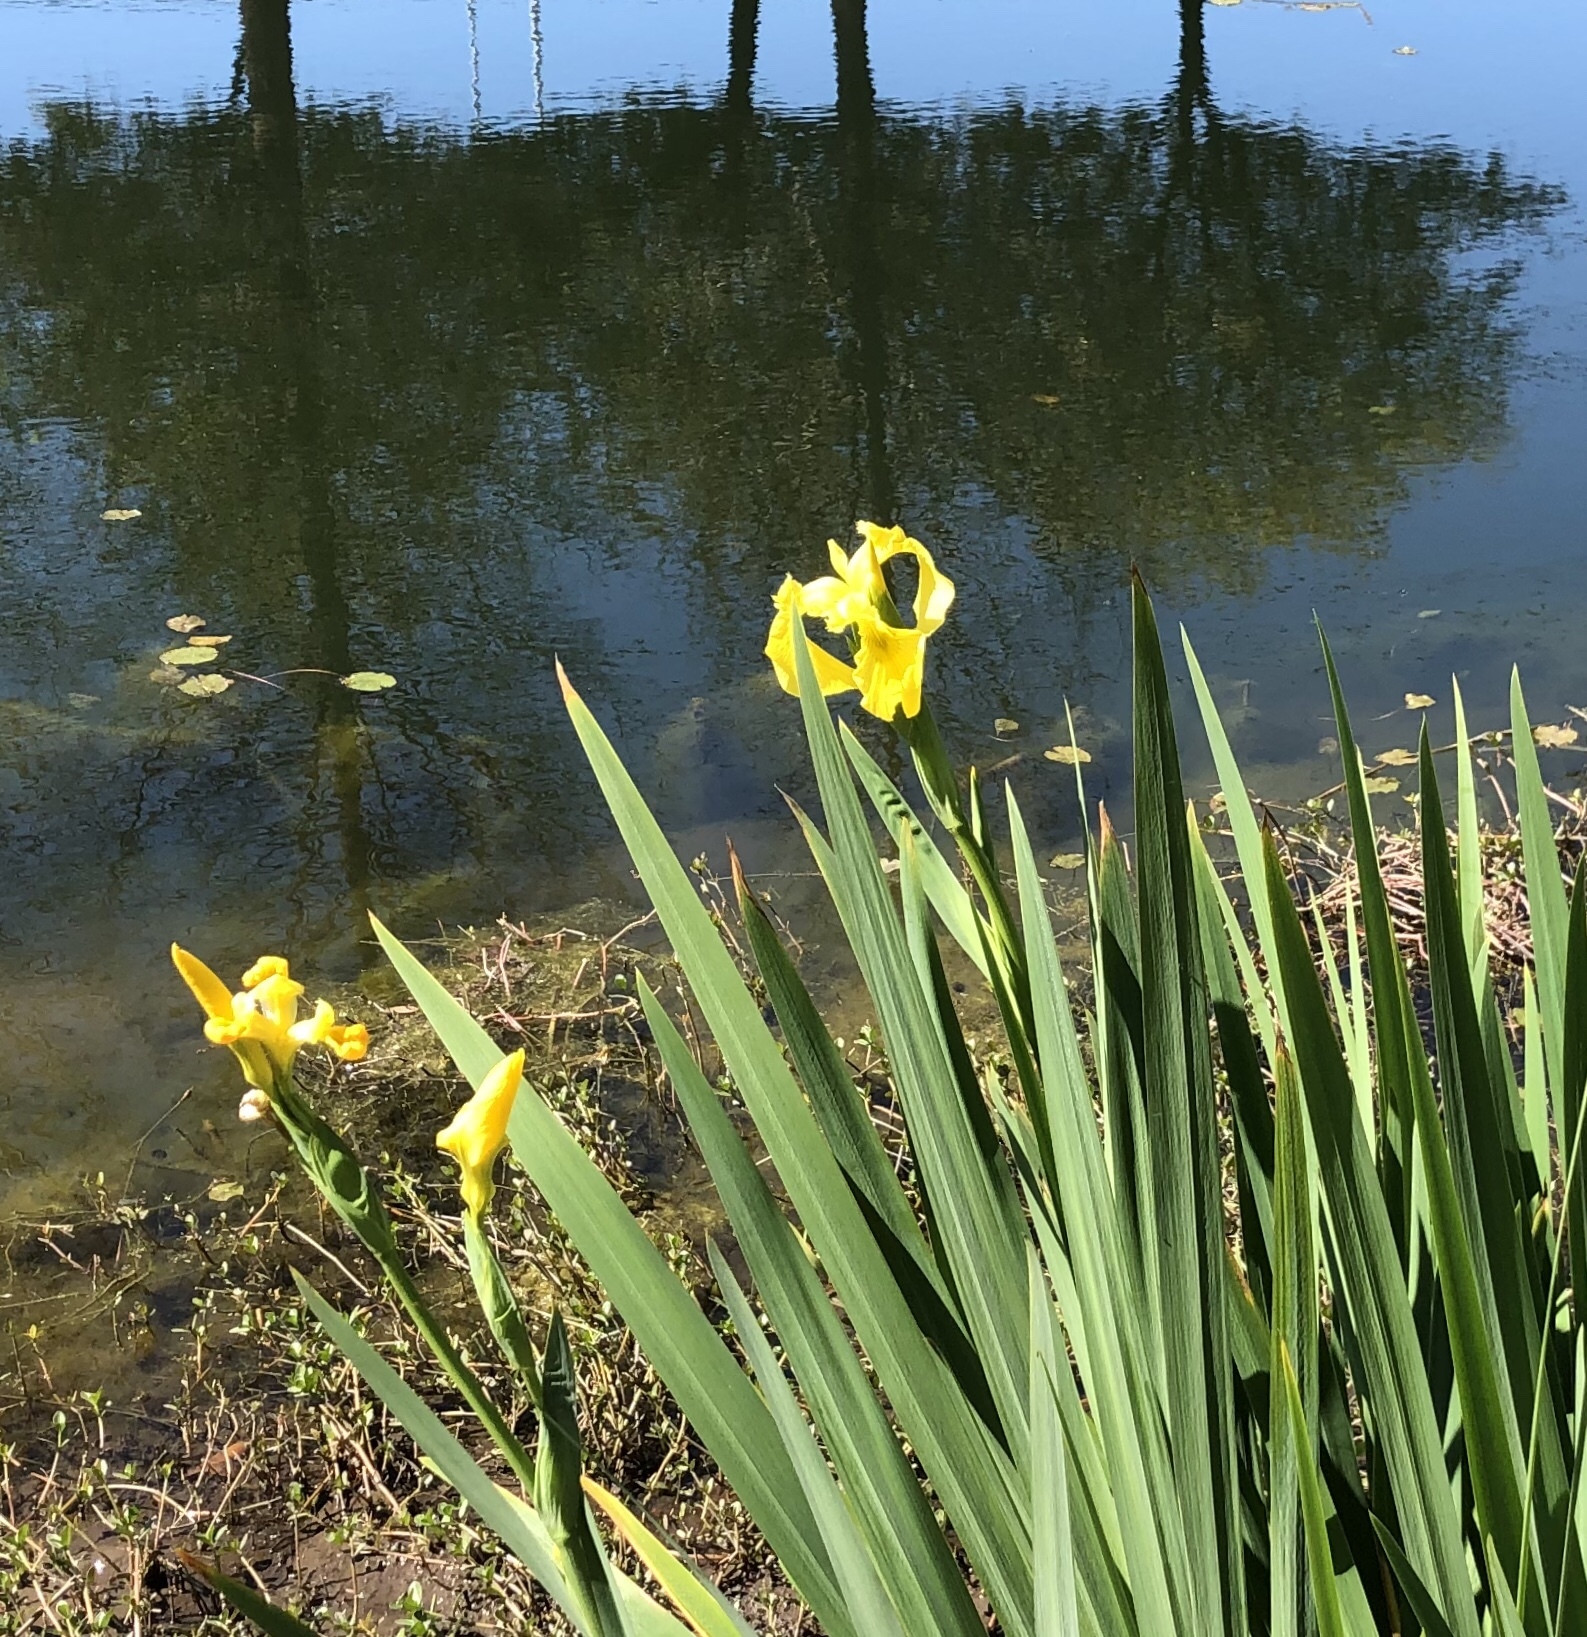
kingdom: Plantae
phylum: Tracheophyta
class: Liliopsida
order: Asparagales
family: Iridaceae
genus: Iris
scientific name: Iris pseudacorus
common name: Yellow flag
